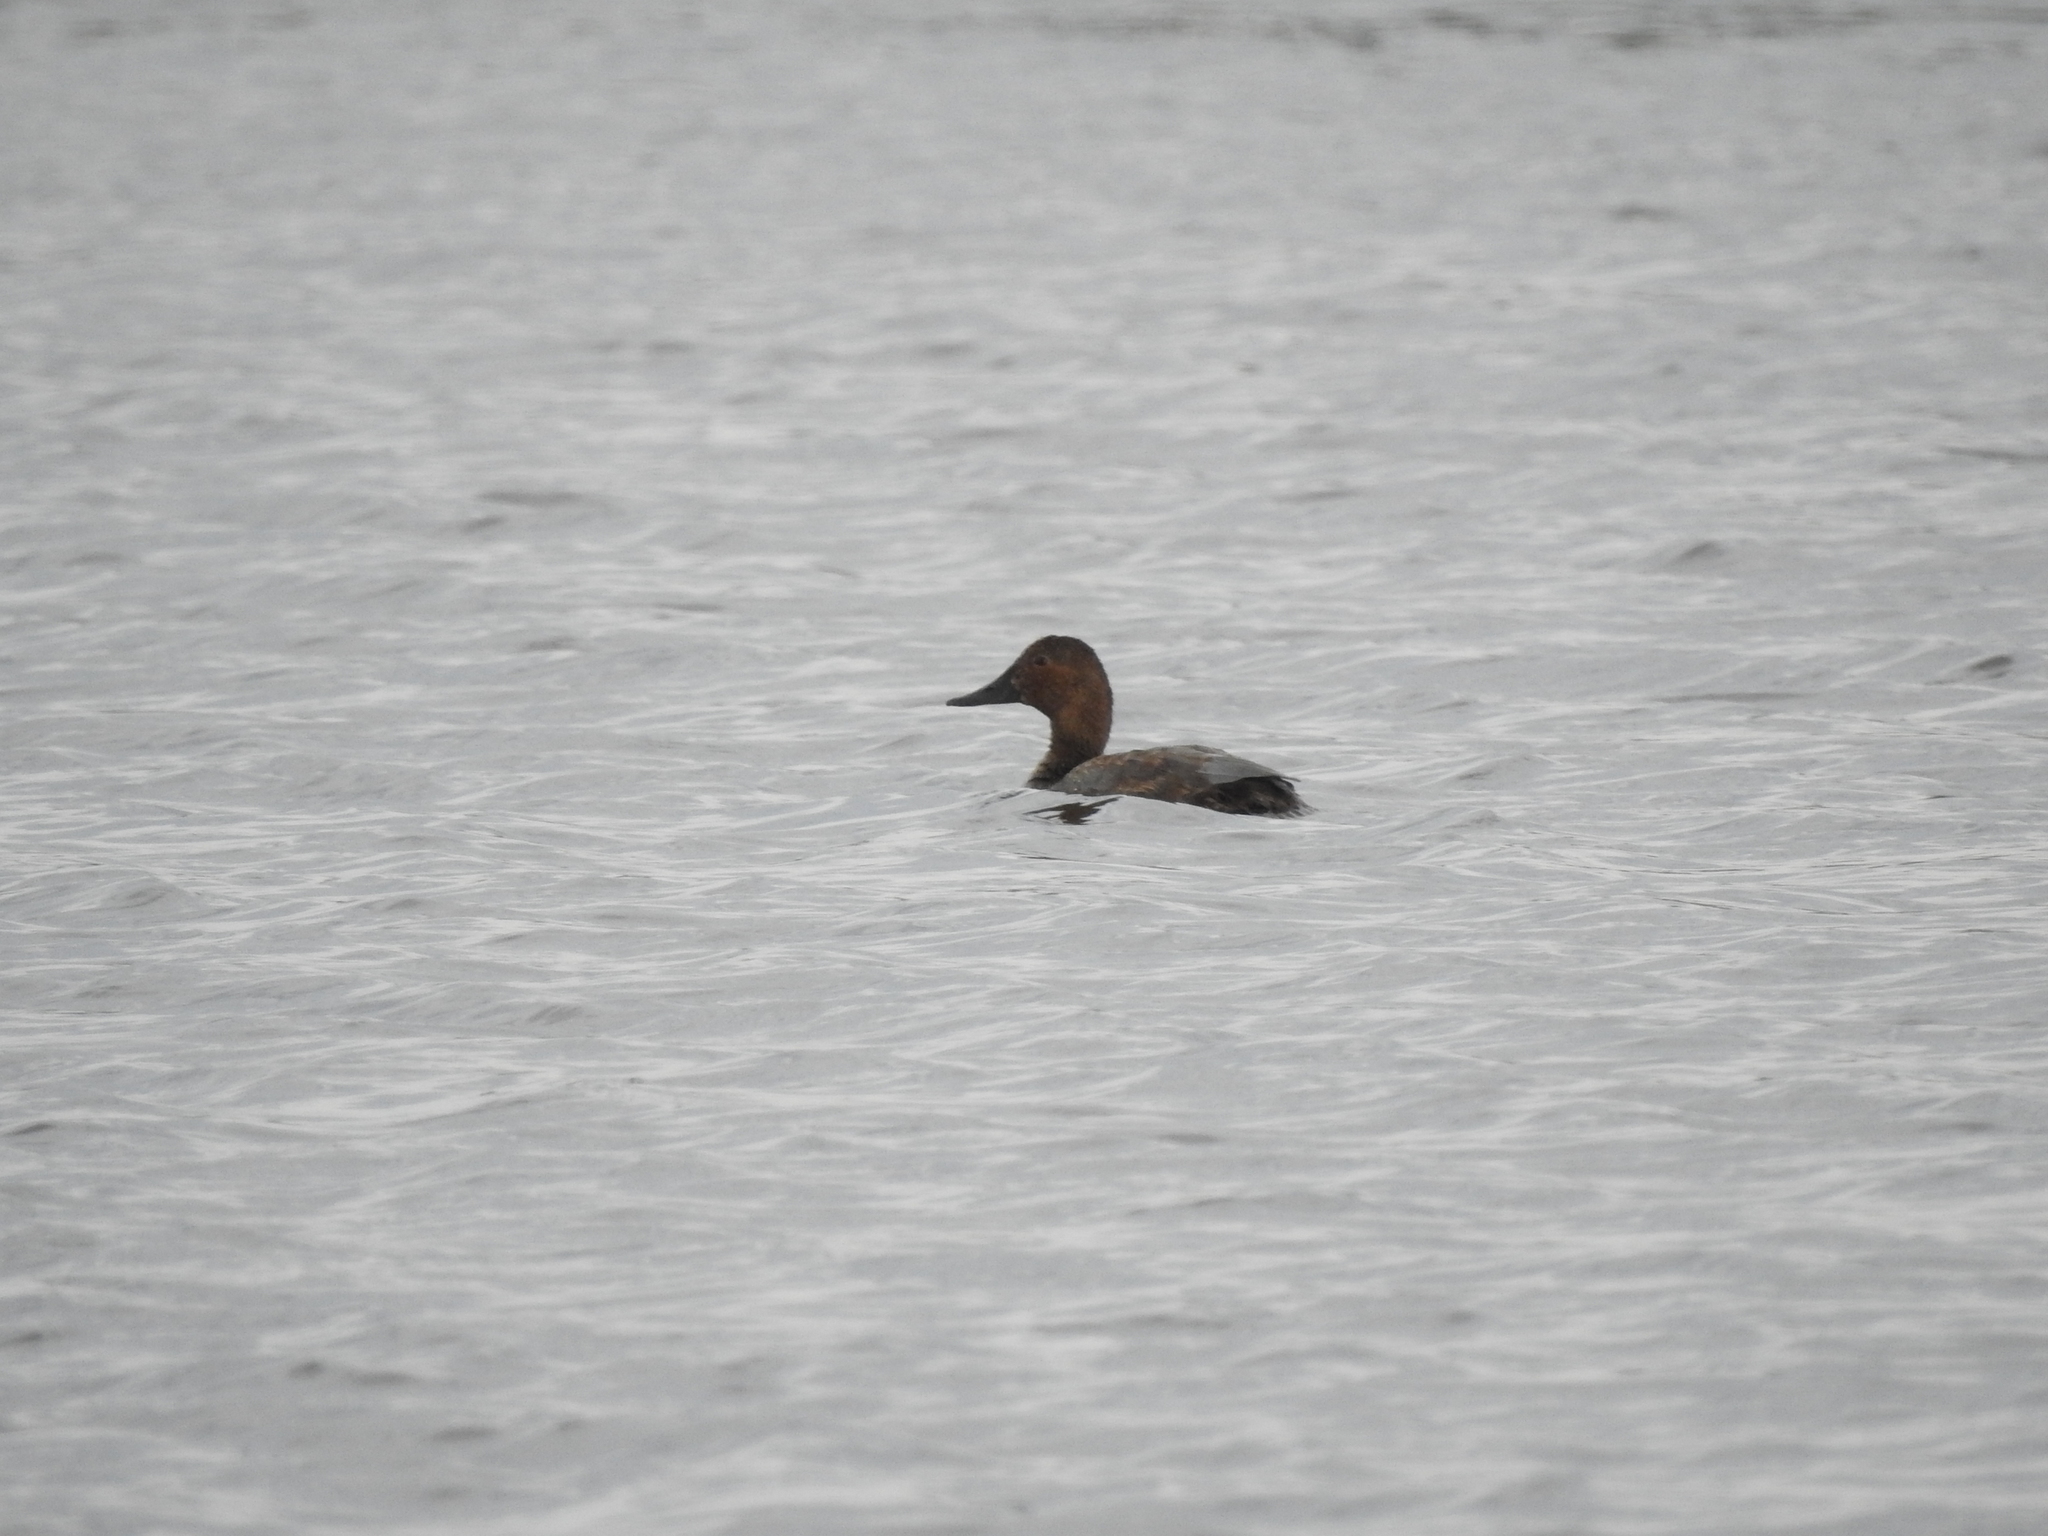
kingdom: Animalia
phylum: Chordata
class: Aves
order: Anseriformes
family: Anatidae
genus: Aythya
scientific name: Aythya ferina
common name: Common pochard
